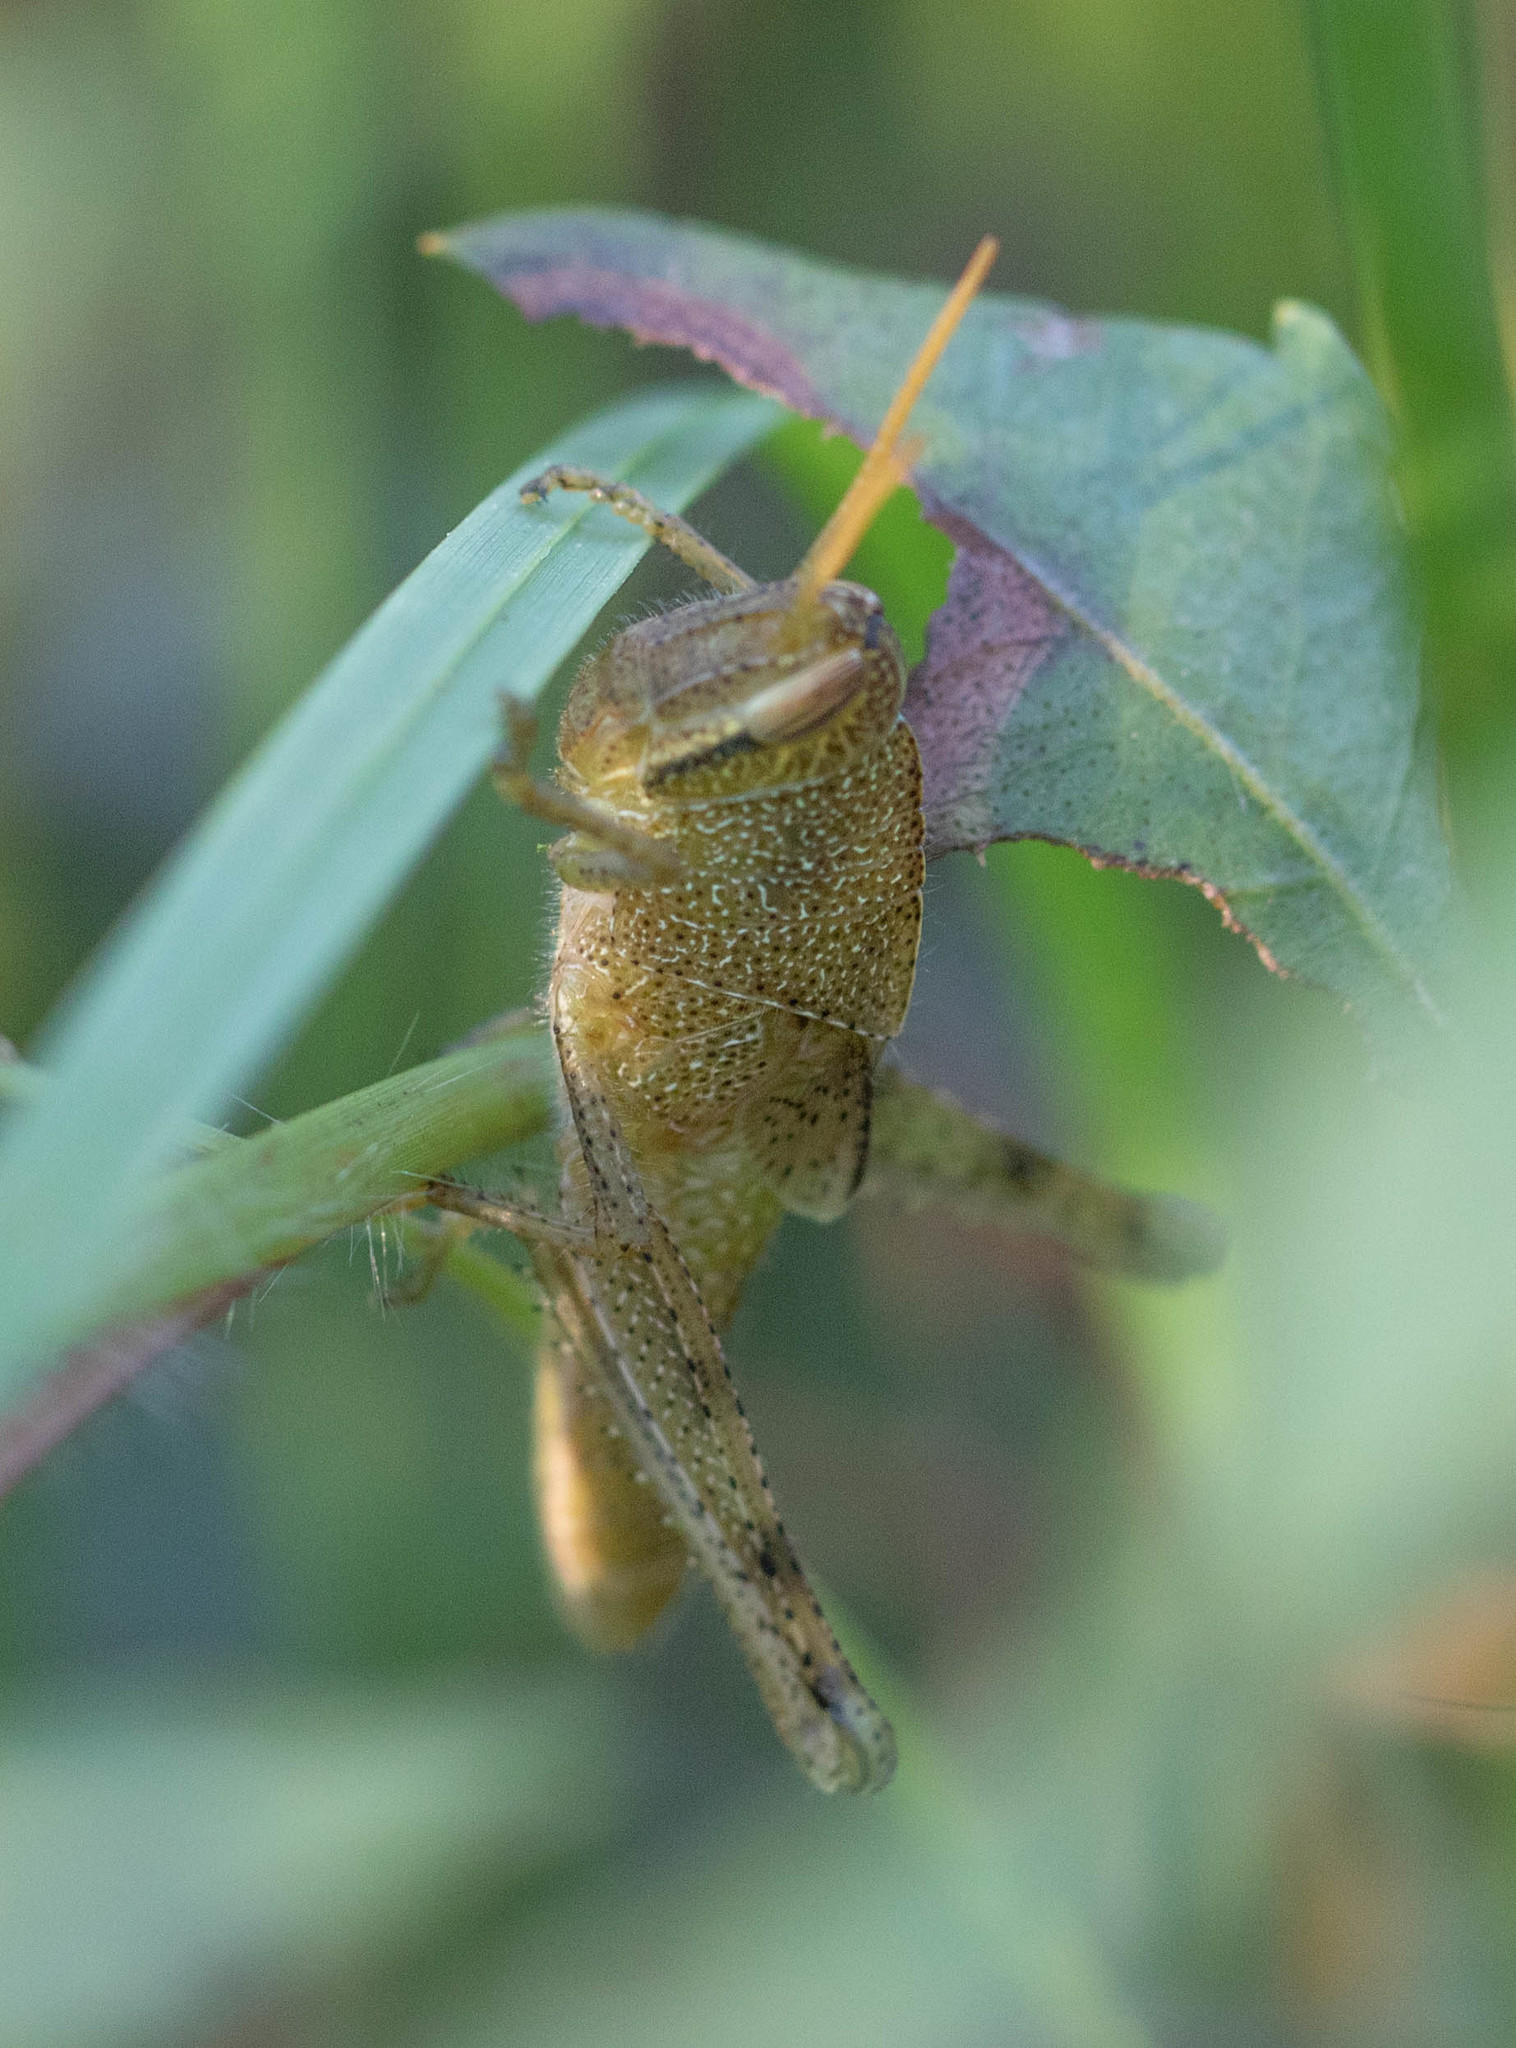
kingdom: Animalia
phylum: Arthropoda
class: Insecta
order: Orthoptera
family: Acrididae
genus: Schistocerca
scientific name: Schistocerca damnifica
